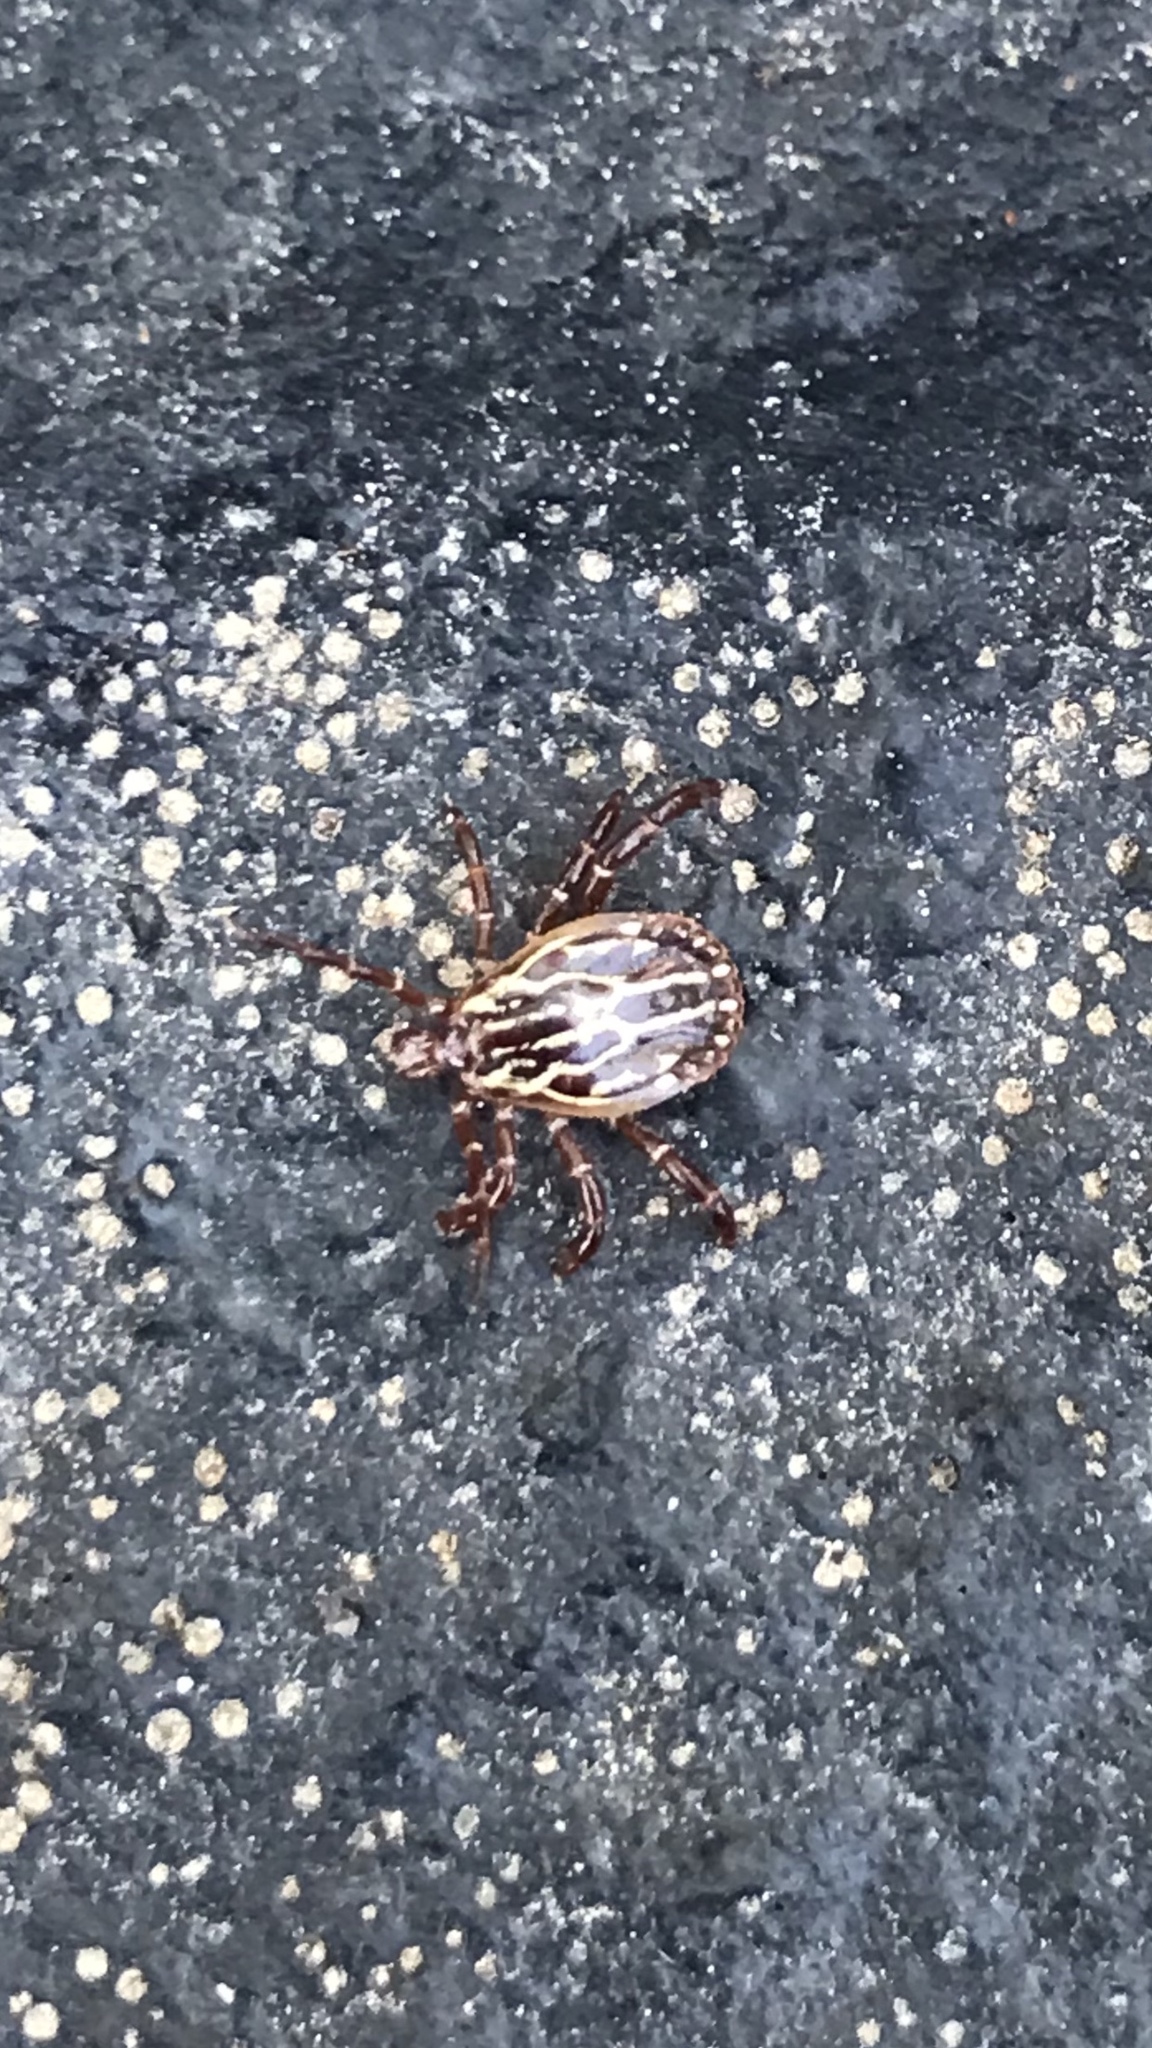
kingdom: Animalia
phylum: Arthropoda
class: Arachnida
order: Ixodida
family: Ixodidae
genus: Amblyomma
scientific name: Amblyomma maculatum
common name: Gulf coast tick
